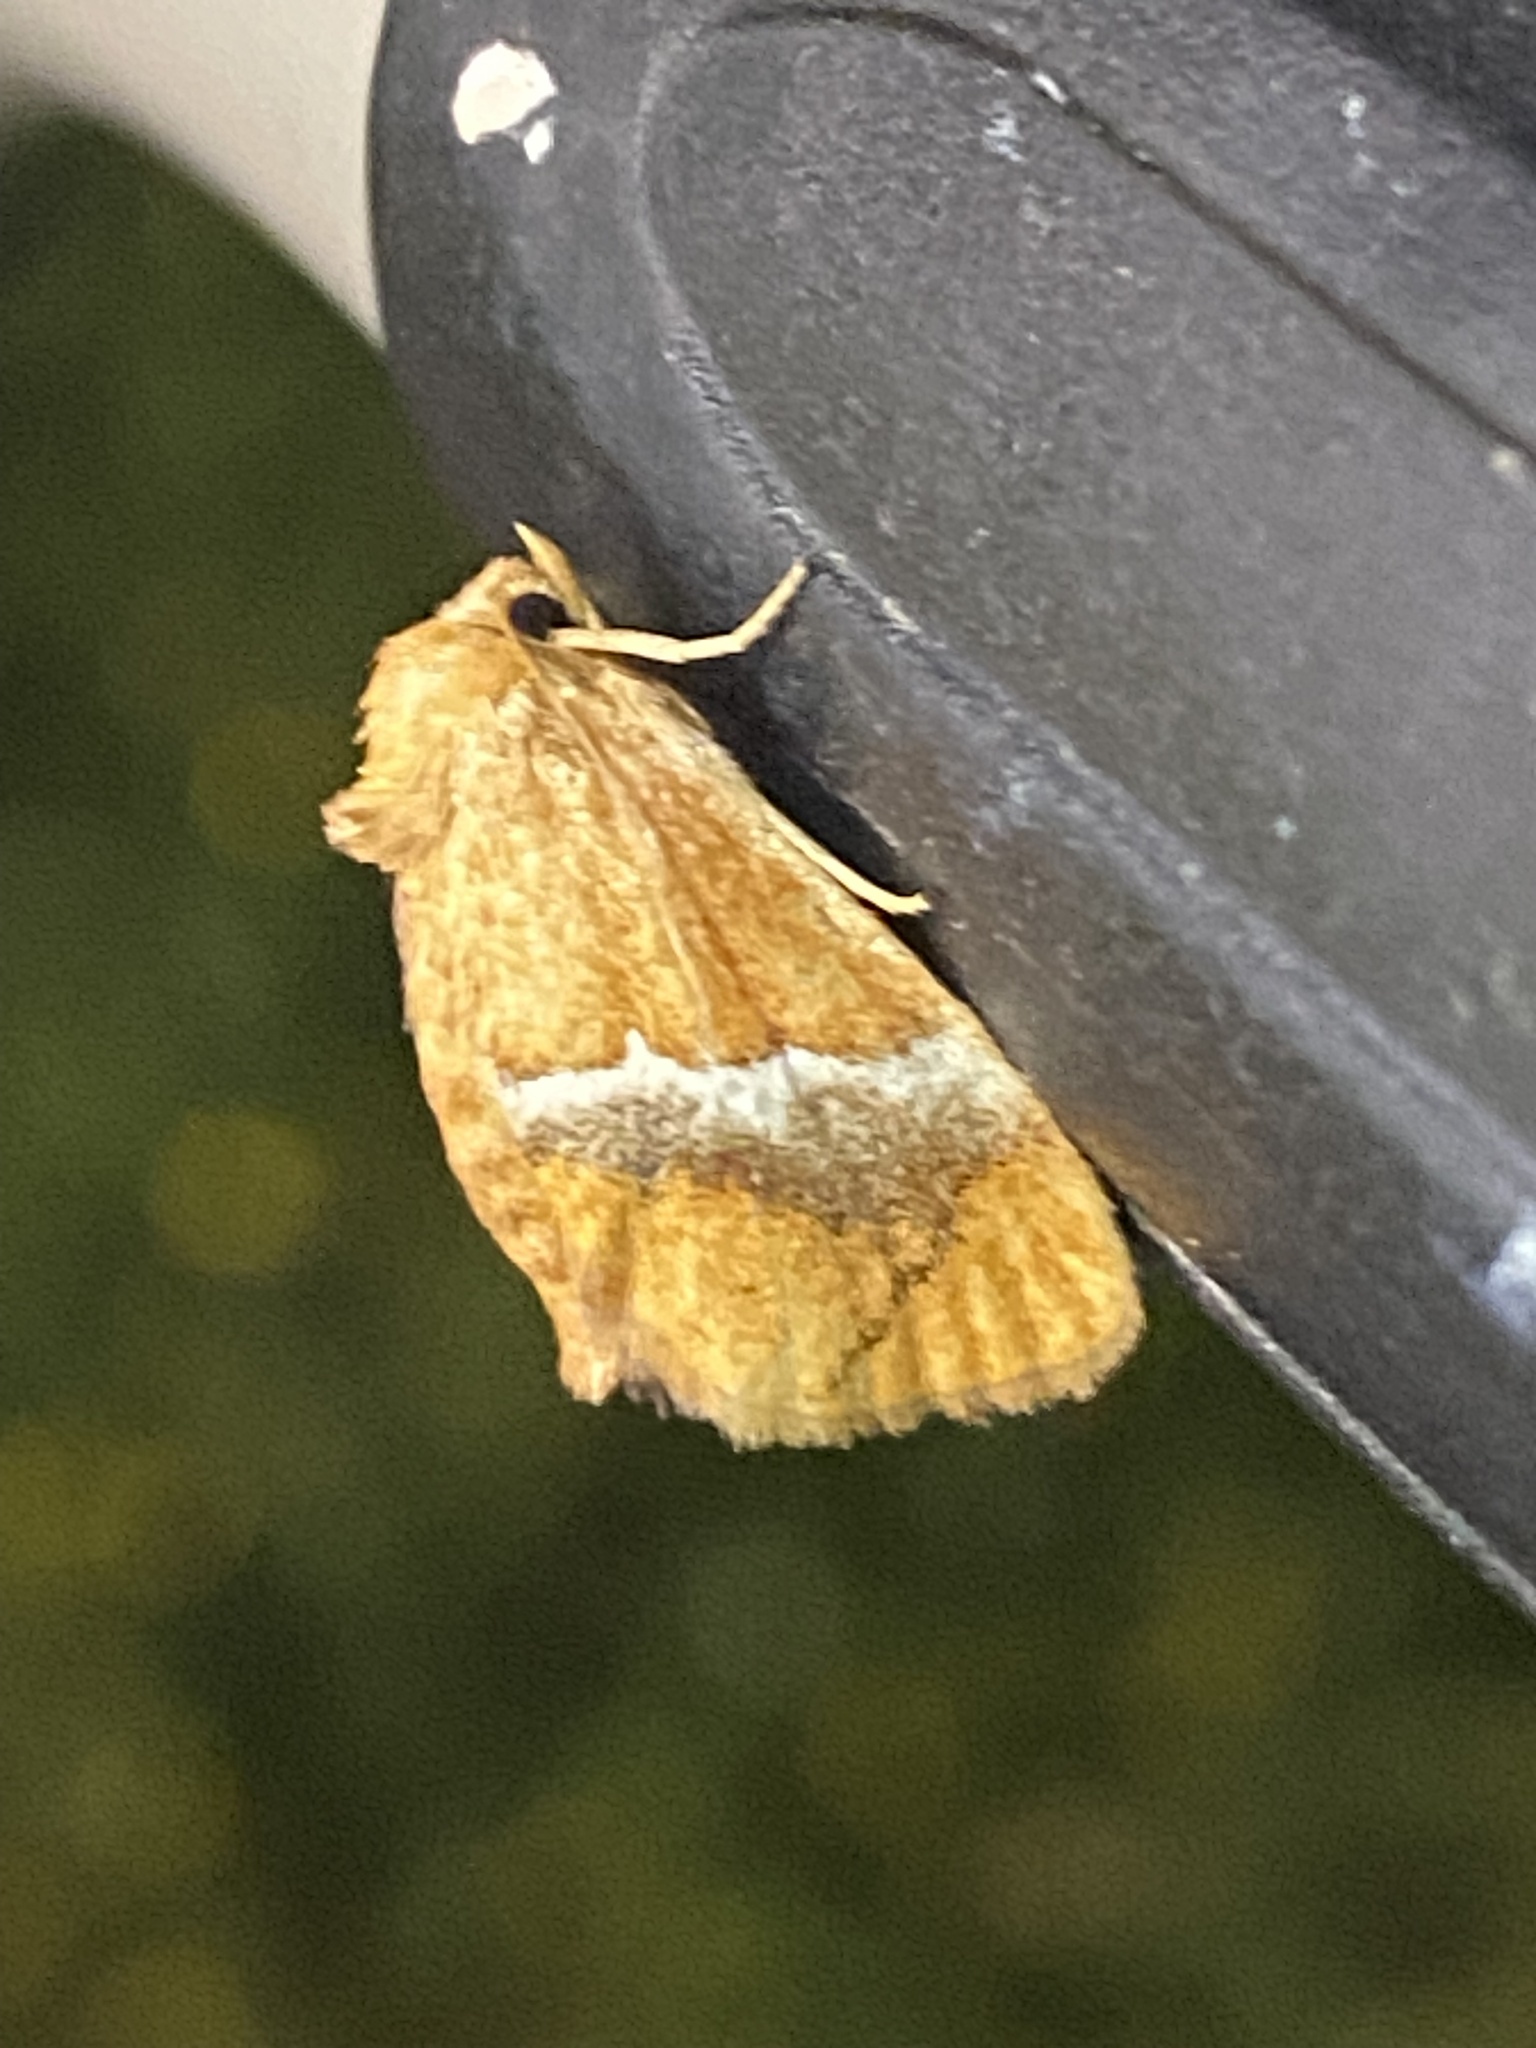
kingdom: Animalia
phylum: Arthropoda
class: Insecta
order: Lepidoptera
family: Limacodidae
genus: Lithacodes
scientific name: Lithacodes fasciola
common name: Yellow-shouldered slug moth
